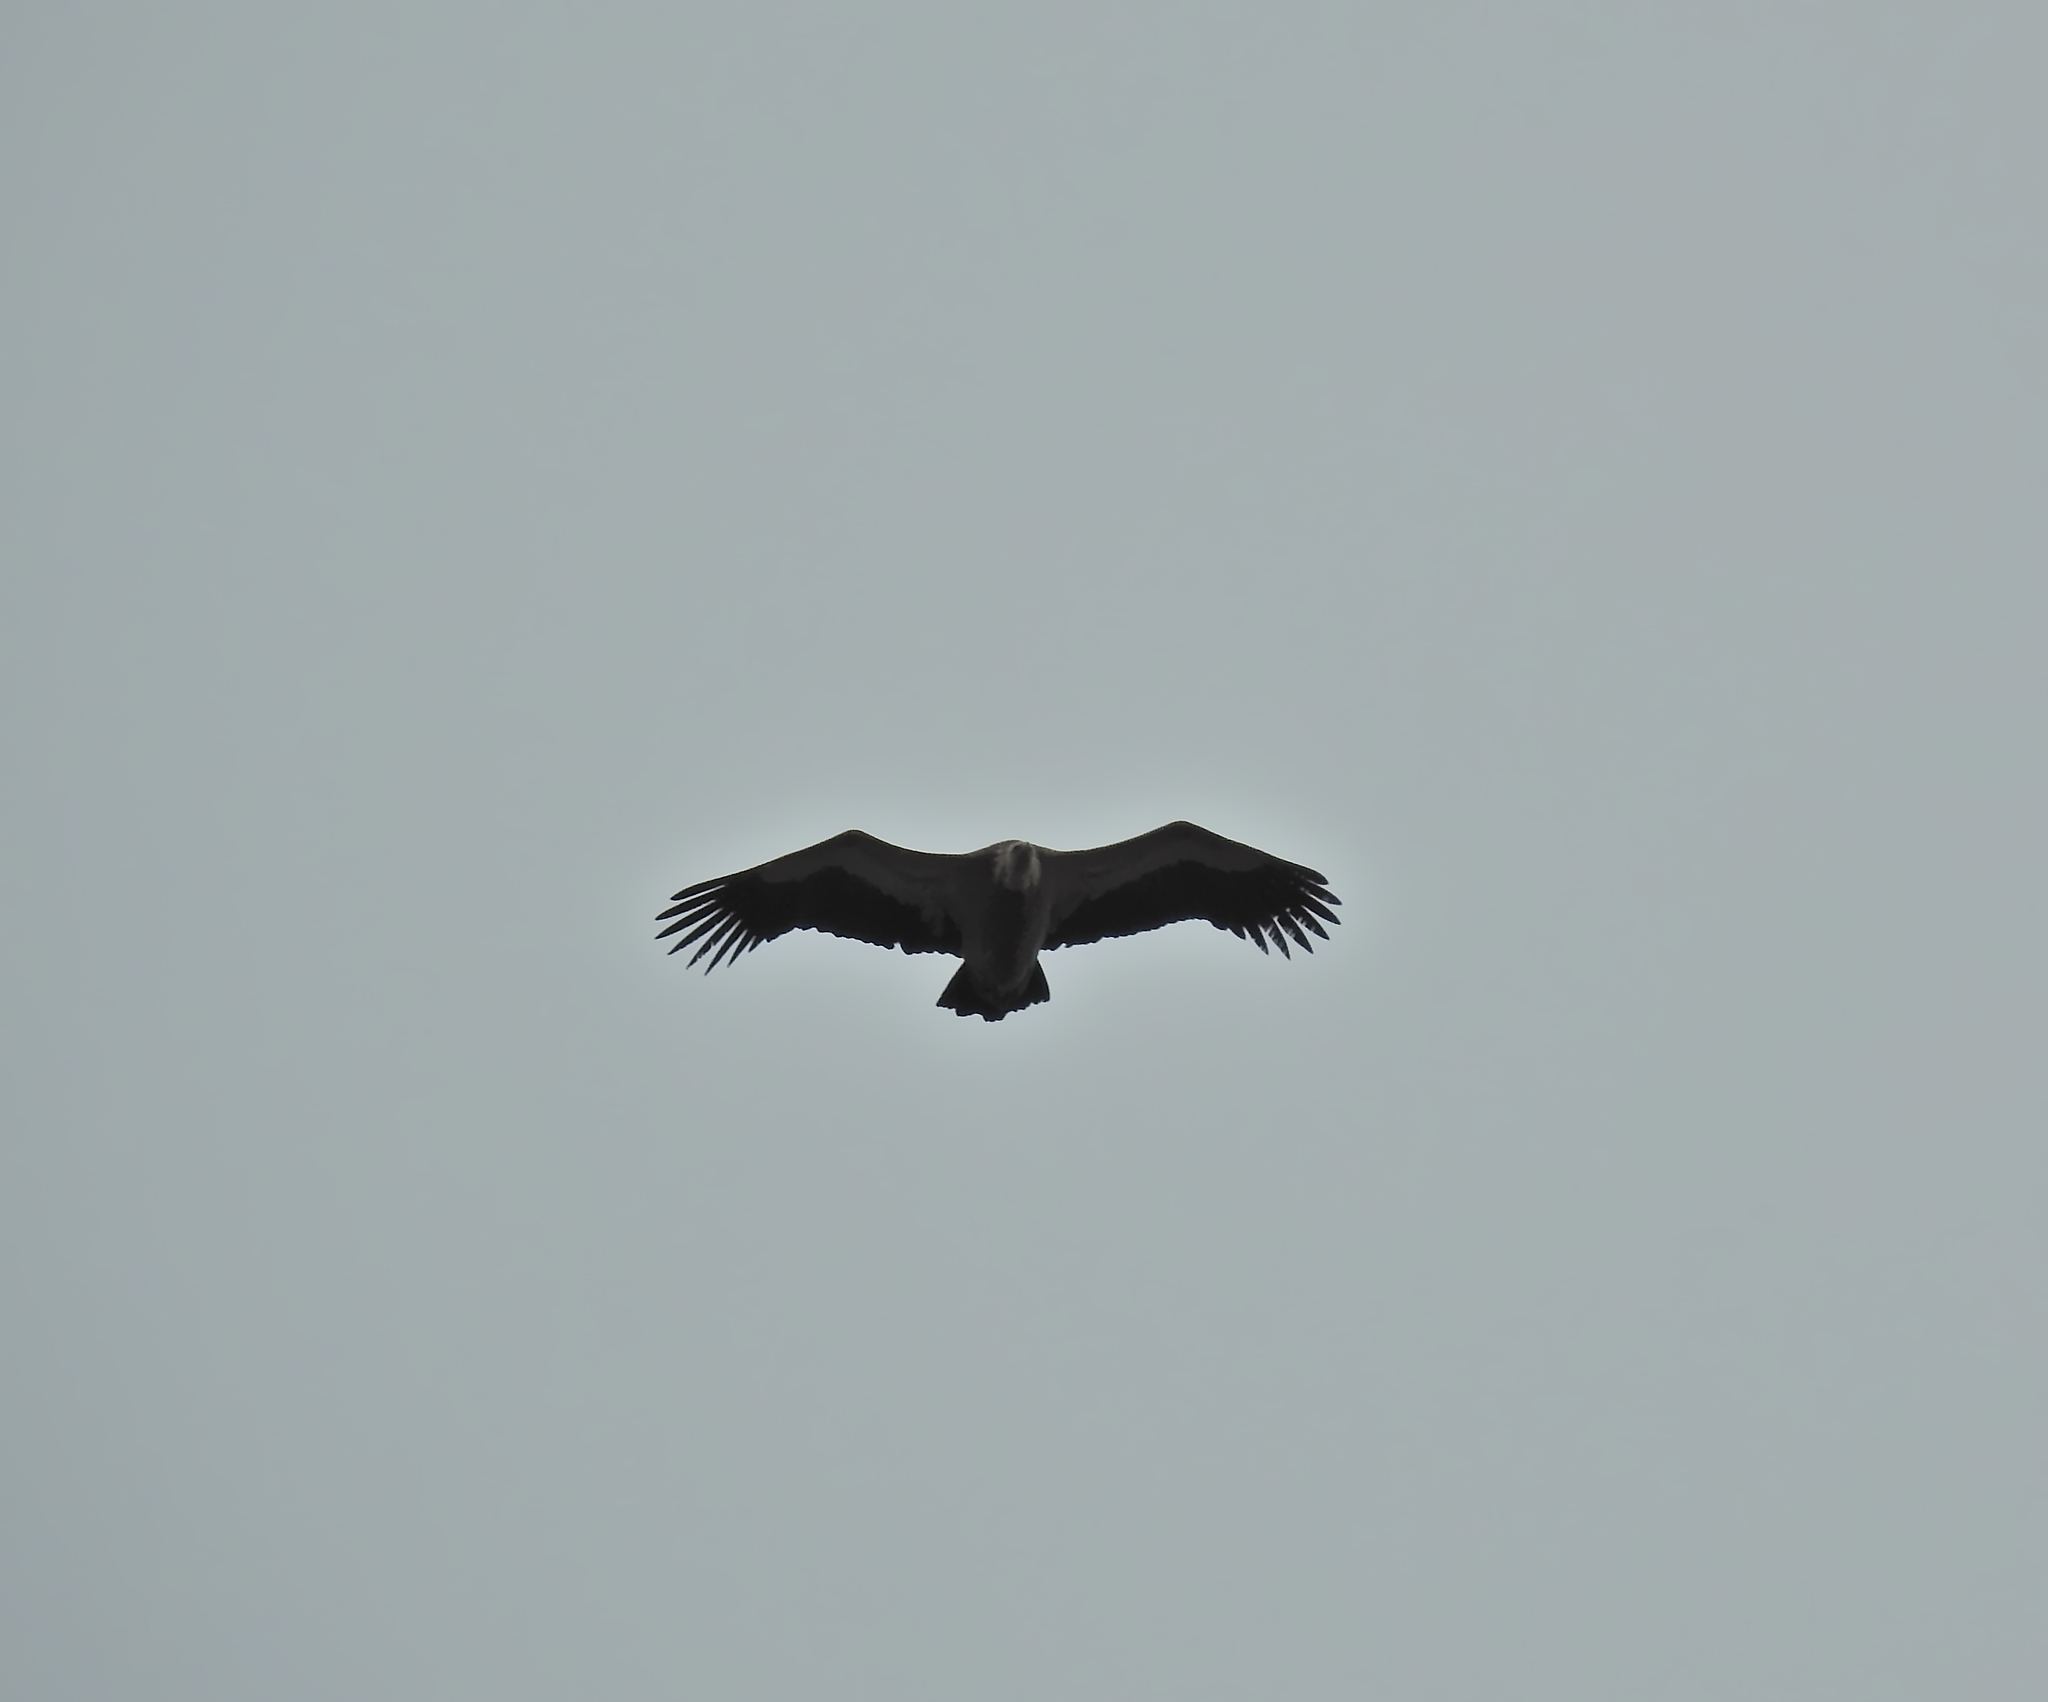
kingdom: Animalia
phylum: Chordata
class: Aves
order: Accipitriformes
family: Accipitridae
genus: Gyps
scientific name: Gyps fulvus
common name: Griffon vulture
